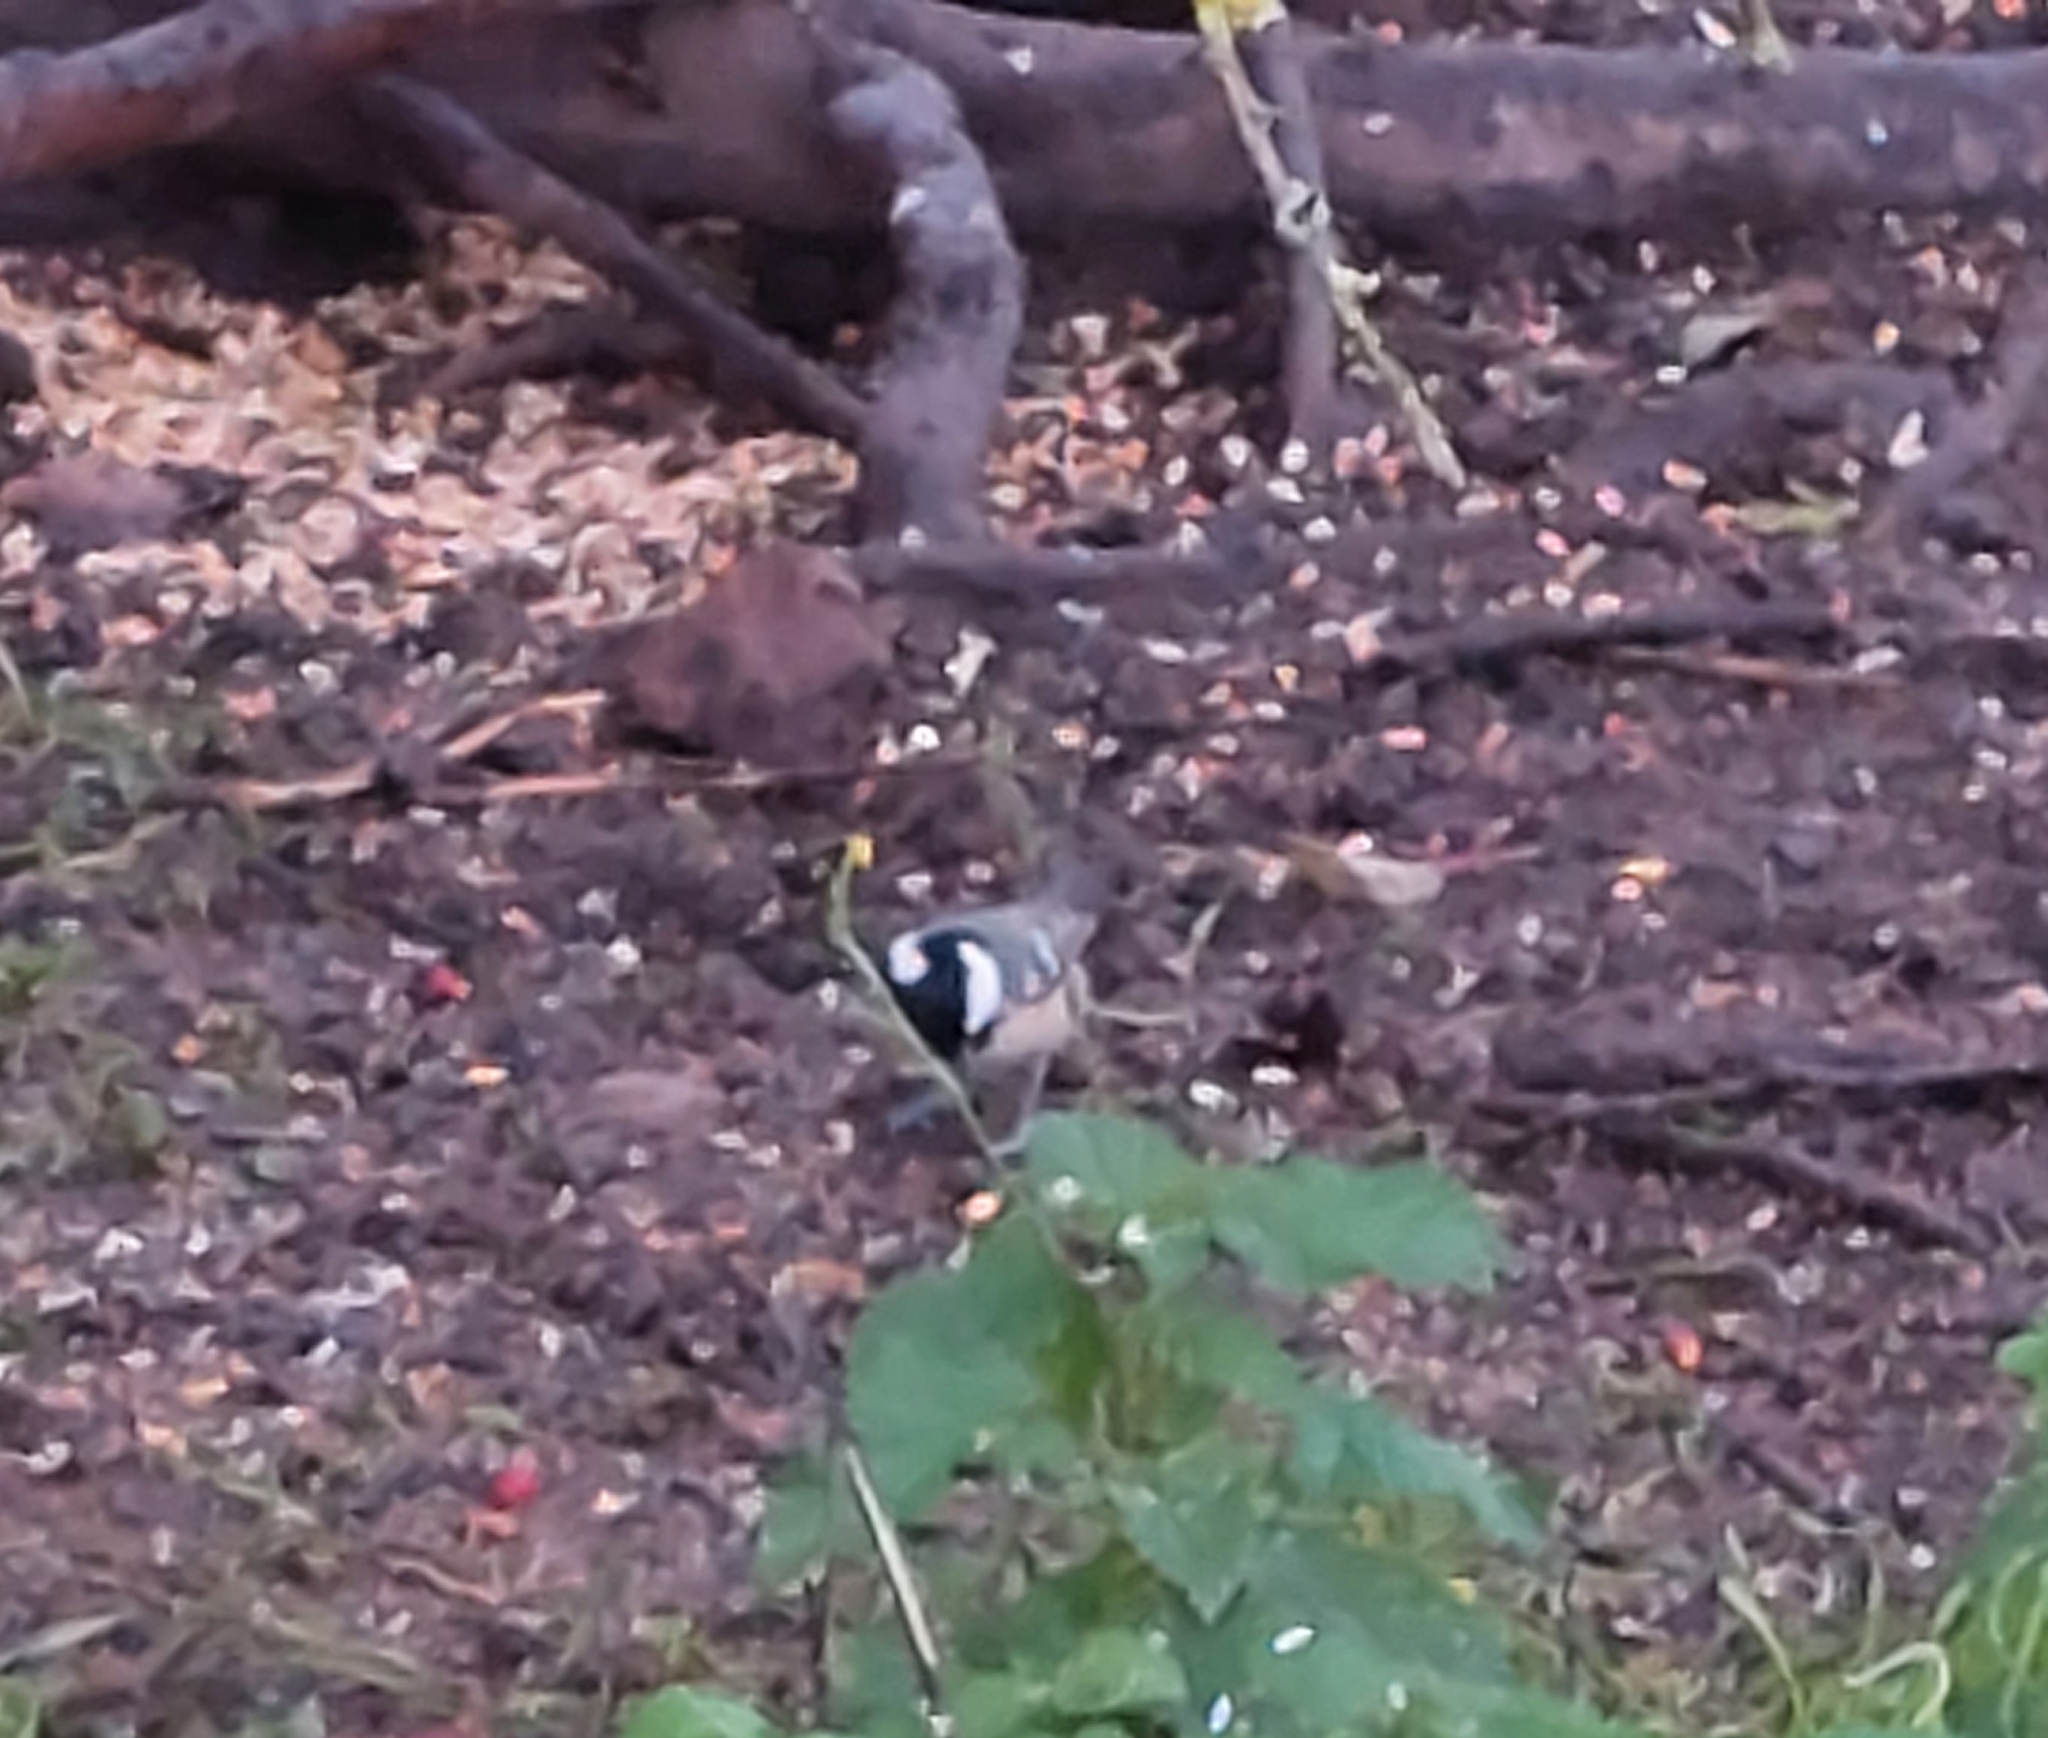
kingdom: Animalia
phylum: Chordata
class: Aves
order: Passeriformes
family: Paridae
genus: Periparus
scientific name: Periparus ater
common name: Coal tit
